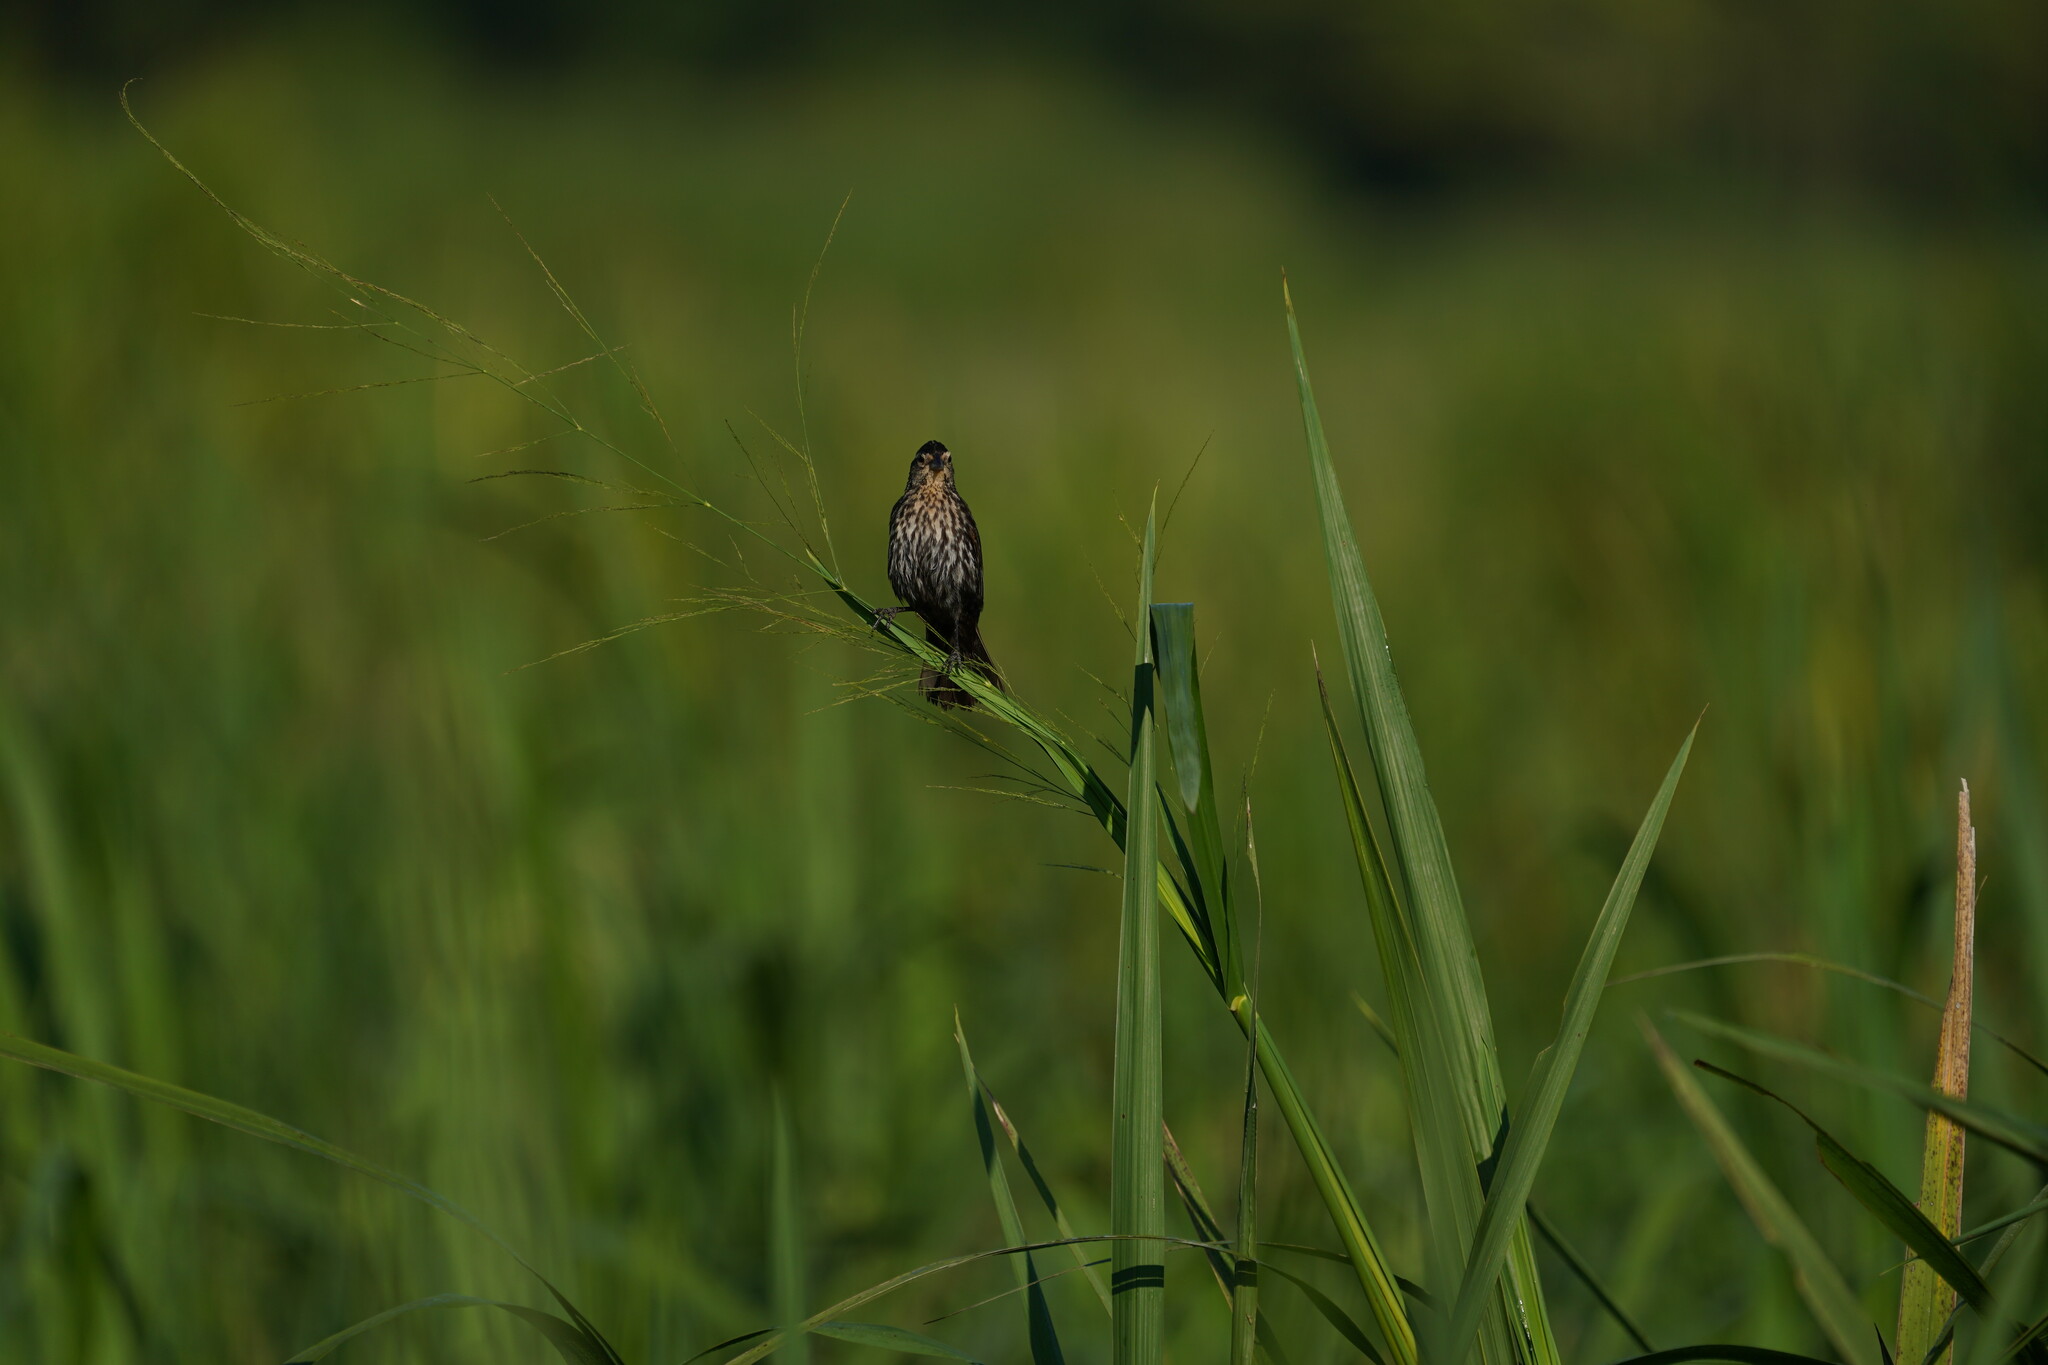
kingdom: Animalia
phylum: Chordata
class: Aves
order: Passeriformes
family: Icteridae
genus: Agelaius
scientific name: Agelaius phoeniceus
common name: Red-winged blackbird
